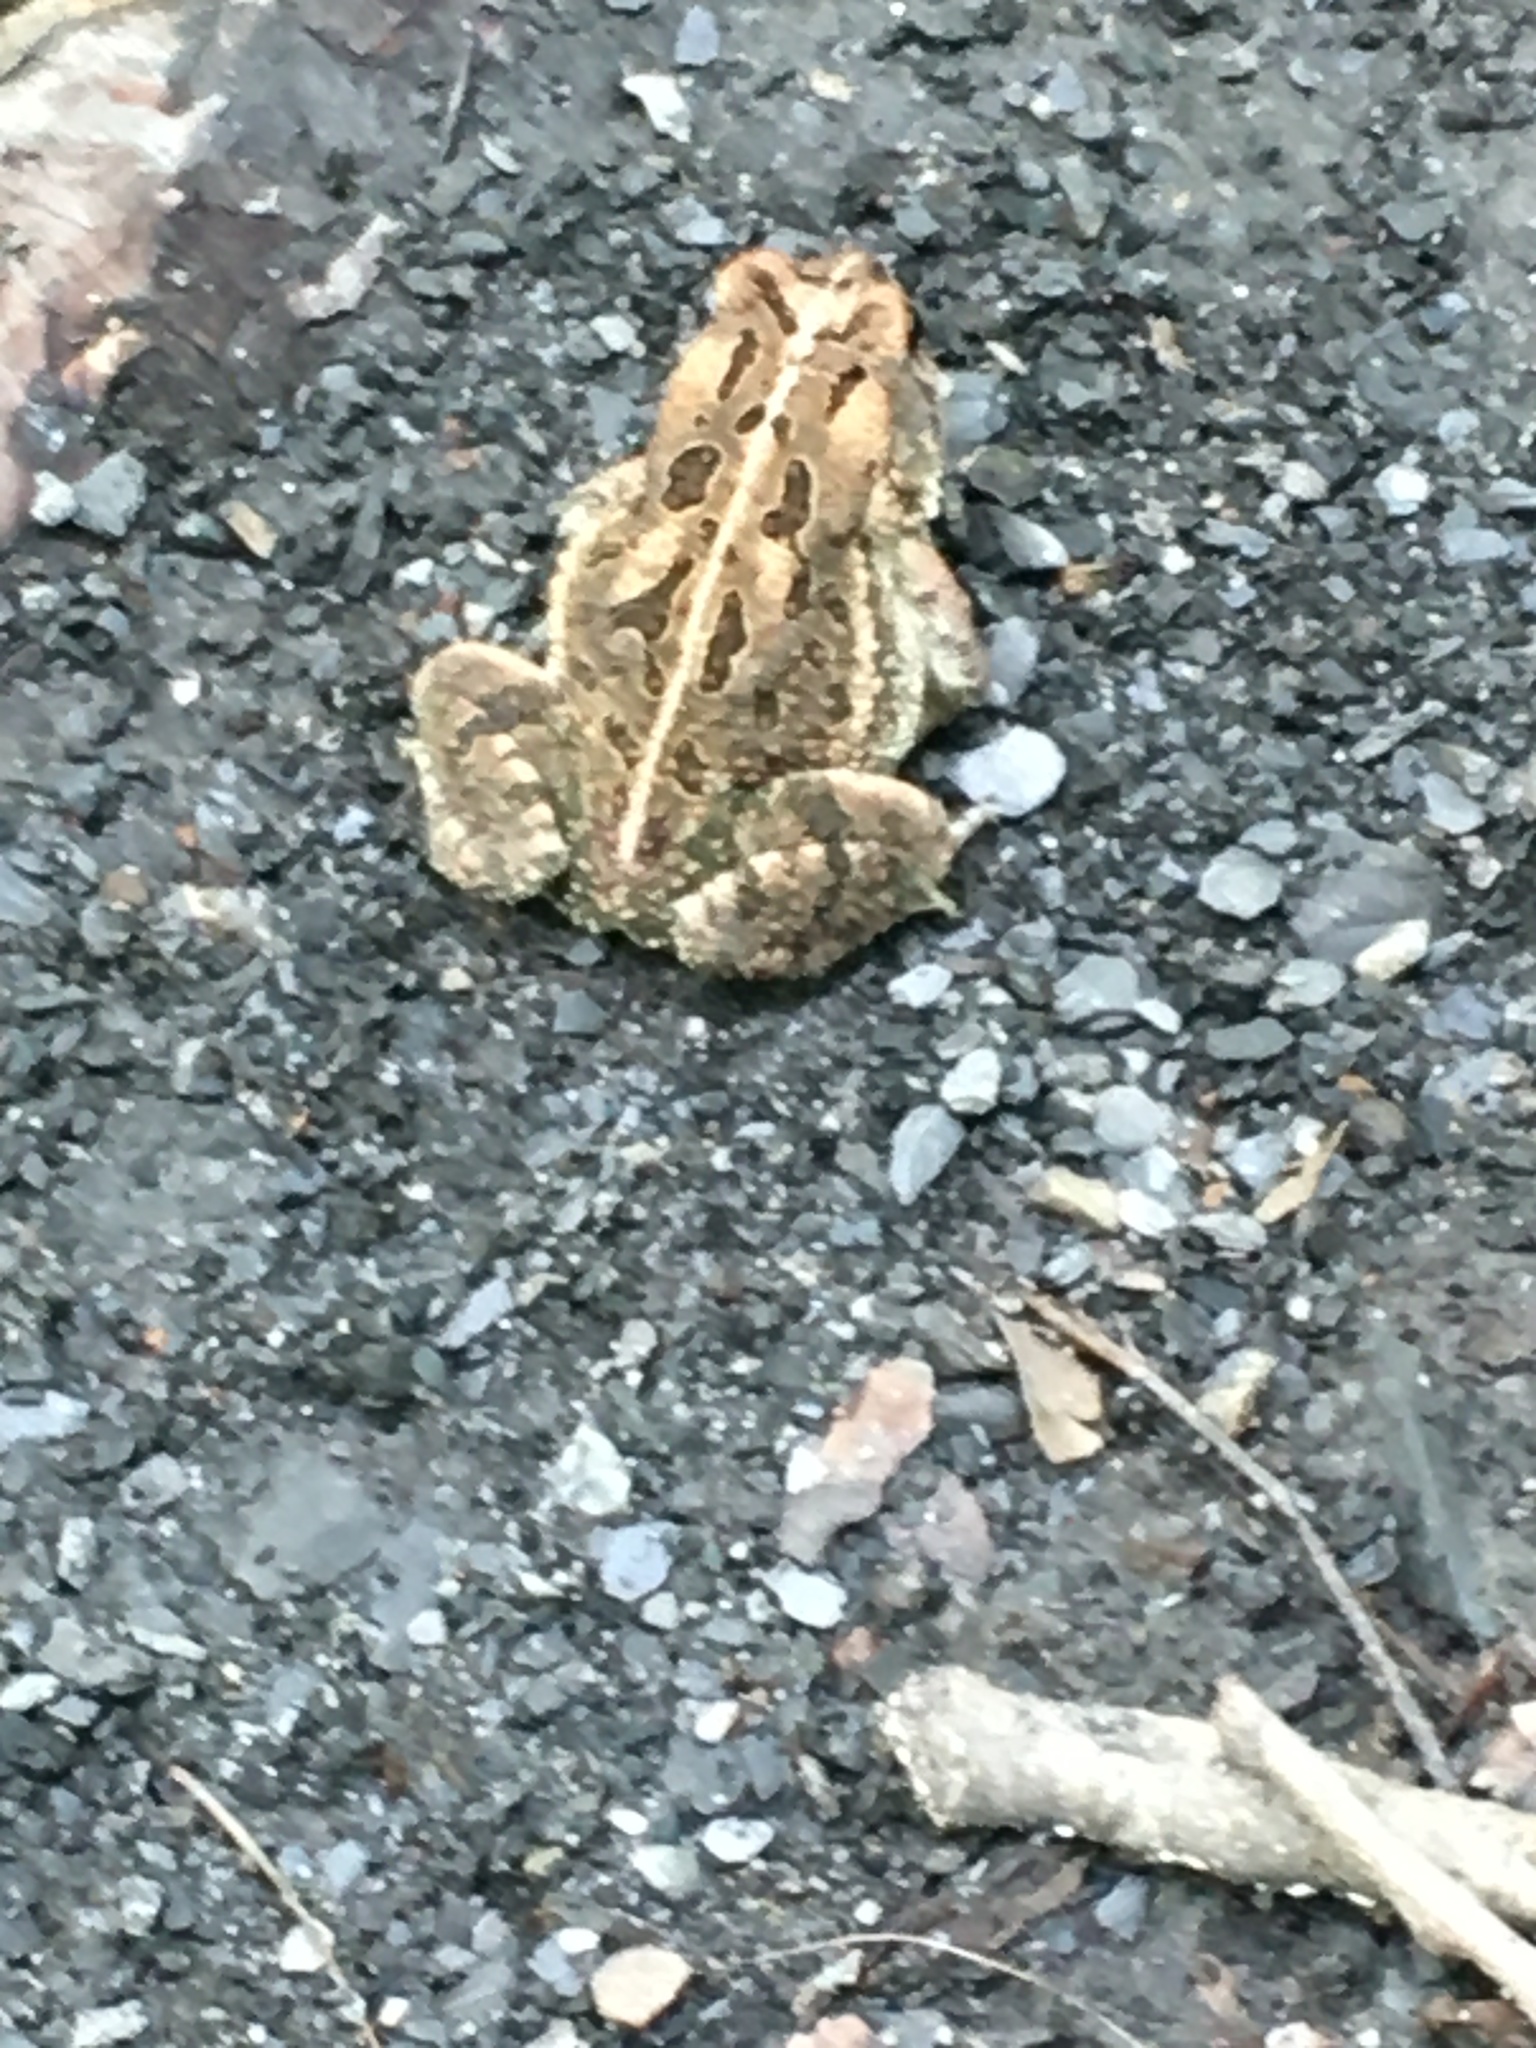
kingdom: Animalia
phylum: Chordata
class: Amphibia
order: Anura
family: Bufonidae
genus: Anaxyrus
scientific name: Anaxyrus fowleri
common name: Fowler's toad
